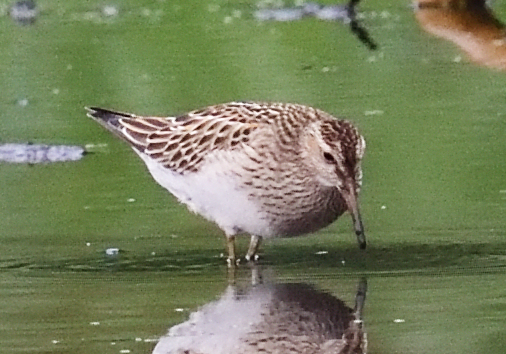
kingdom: Animalia
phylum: Chordata
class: Aves
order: Charadriiformes
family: Scolopacidae
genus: Calidris
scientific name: Calidris melanotos
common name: Pectoral sandpiper
